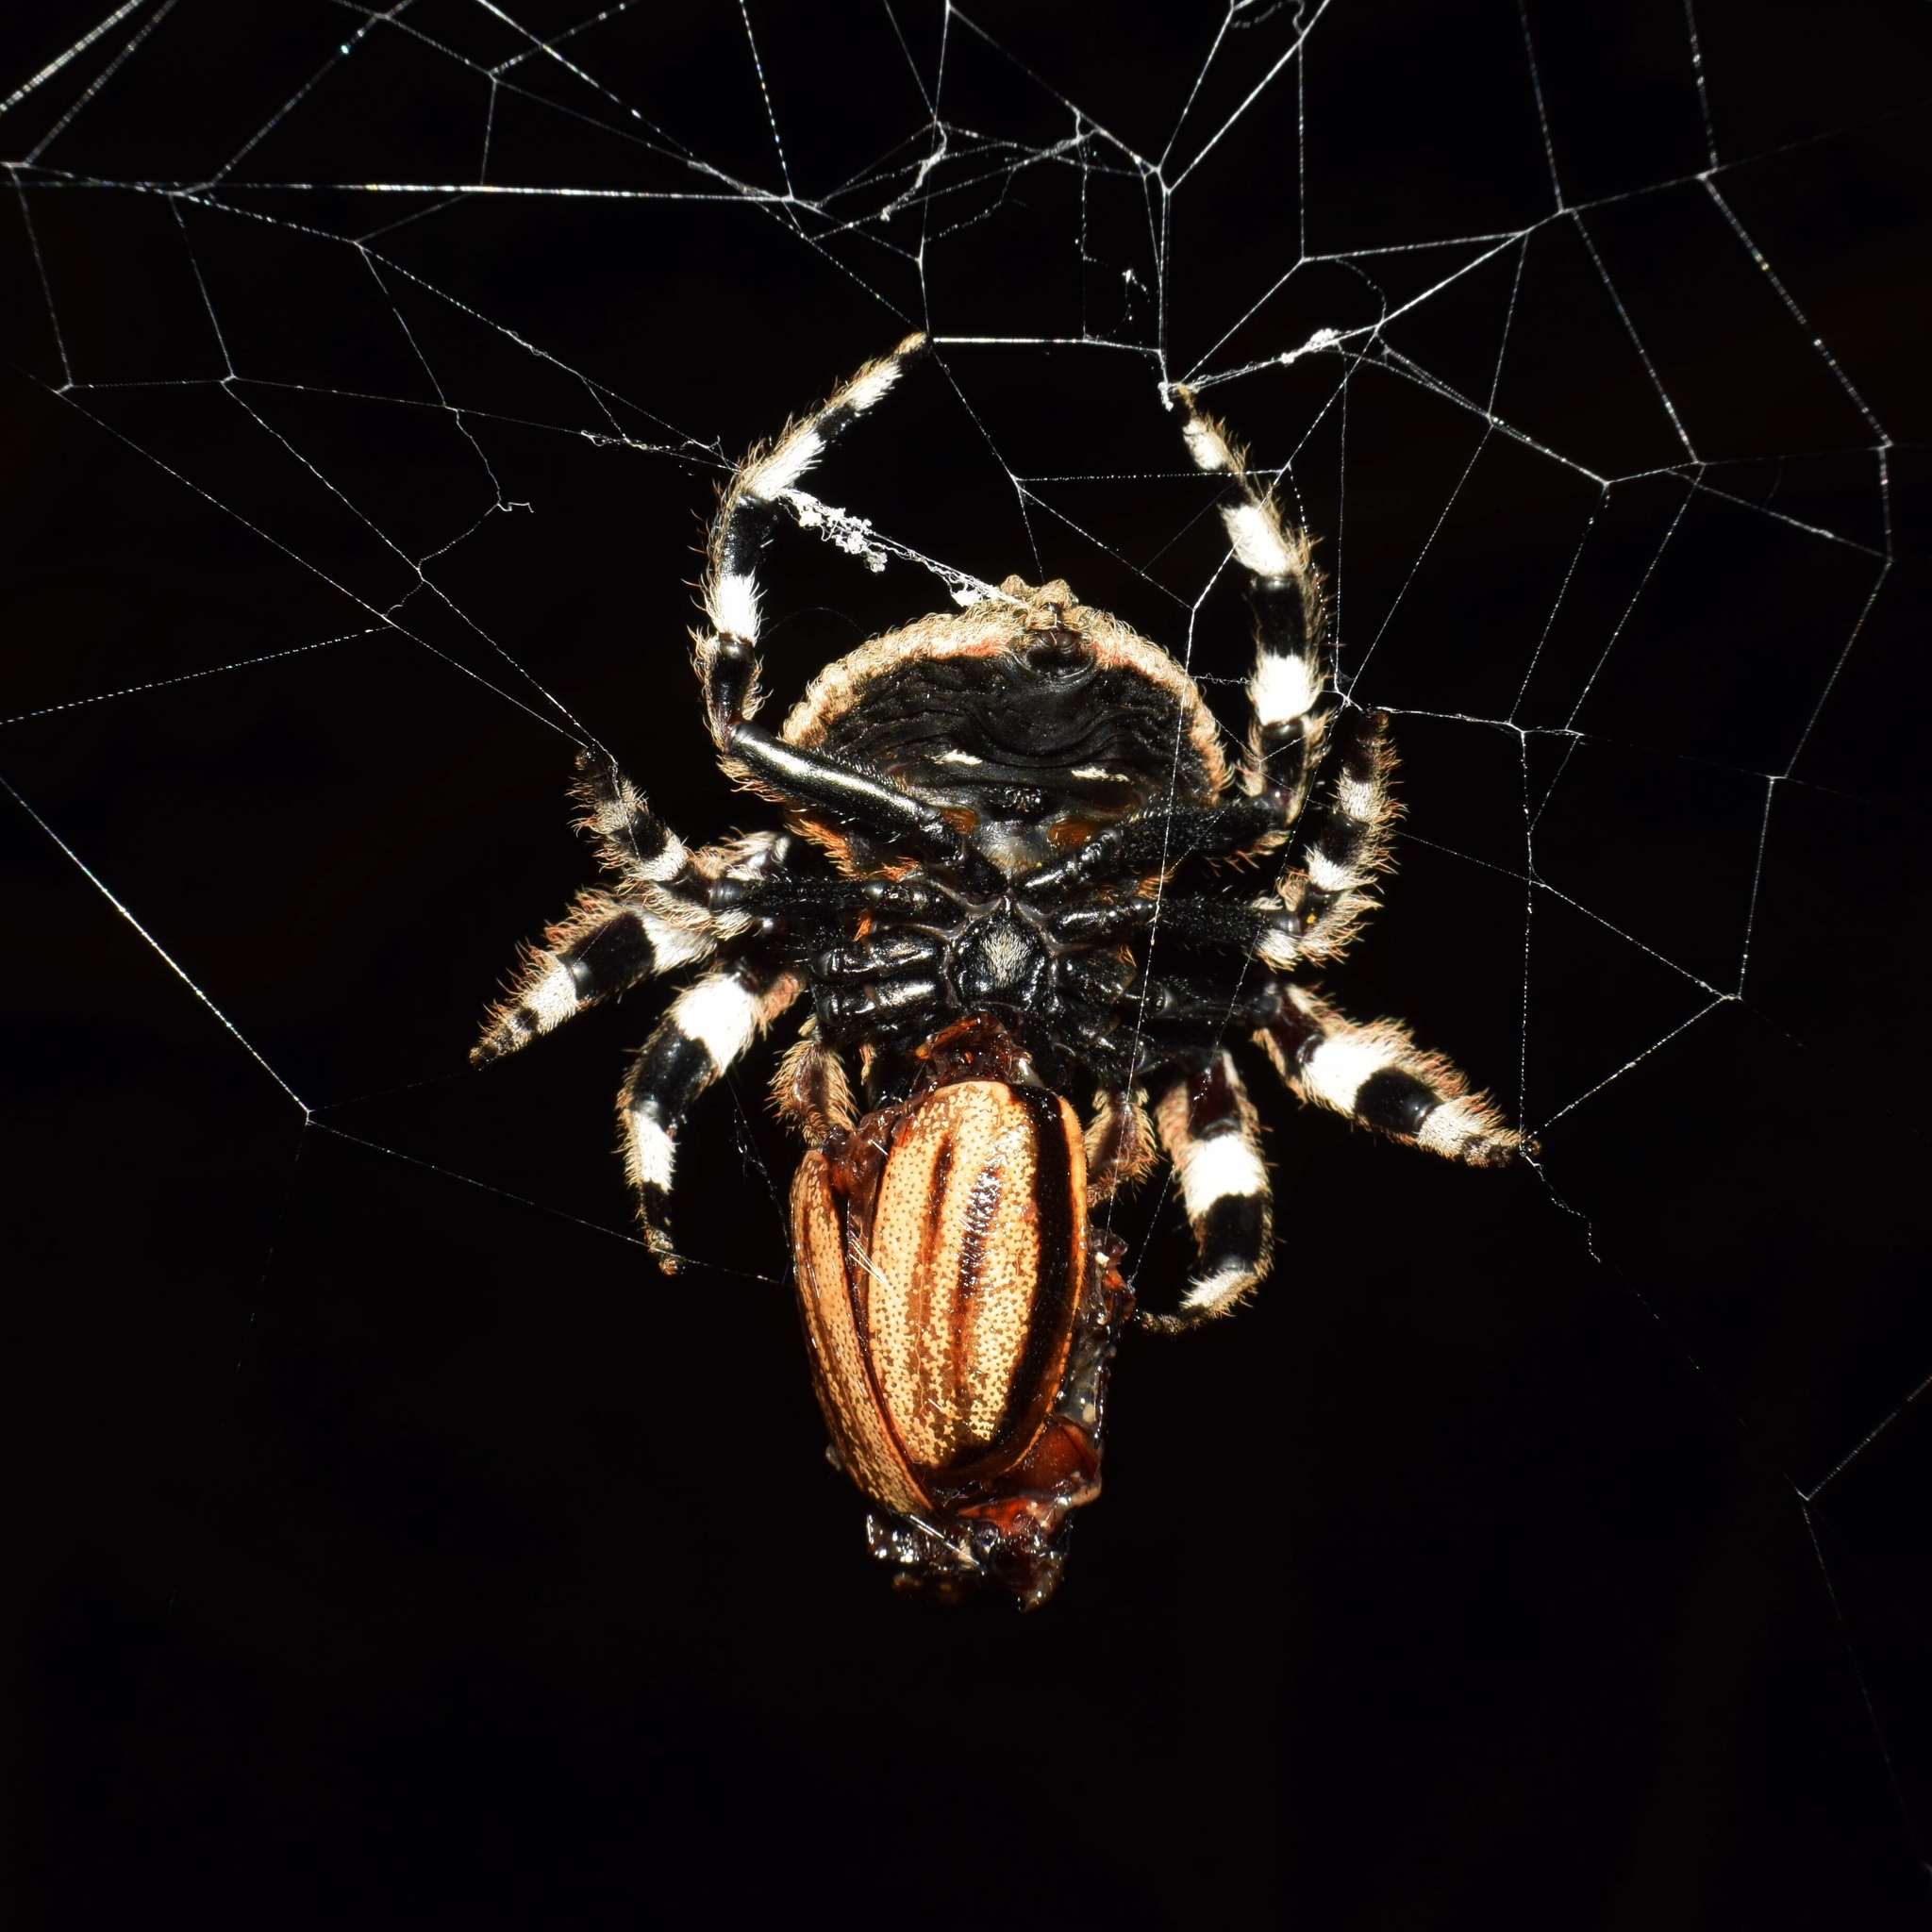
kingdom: Animalia
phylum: Arthropoda
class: Insecta
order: Coleoptera
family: Scarabaeidae
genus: Pegylis
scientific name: Pegylis vittata
